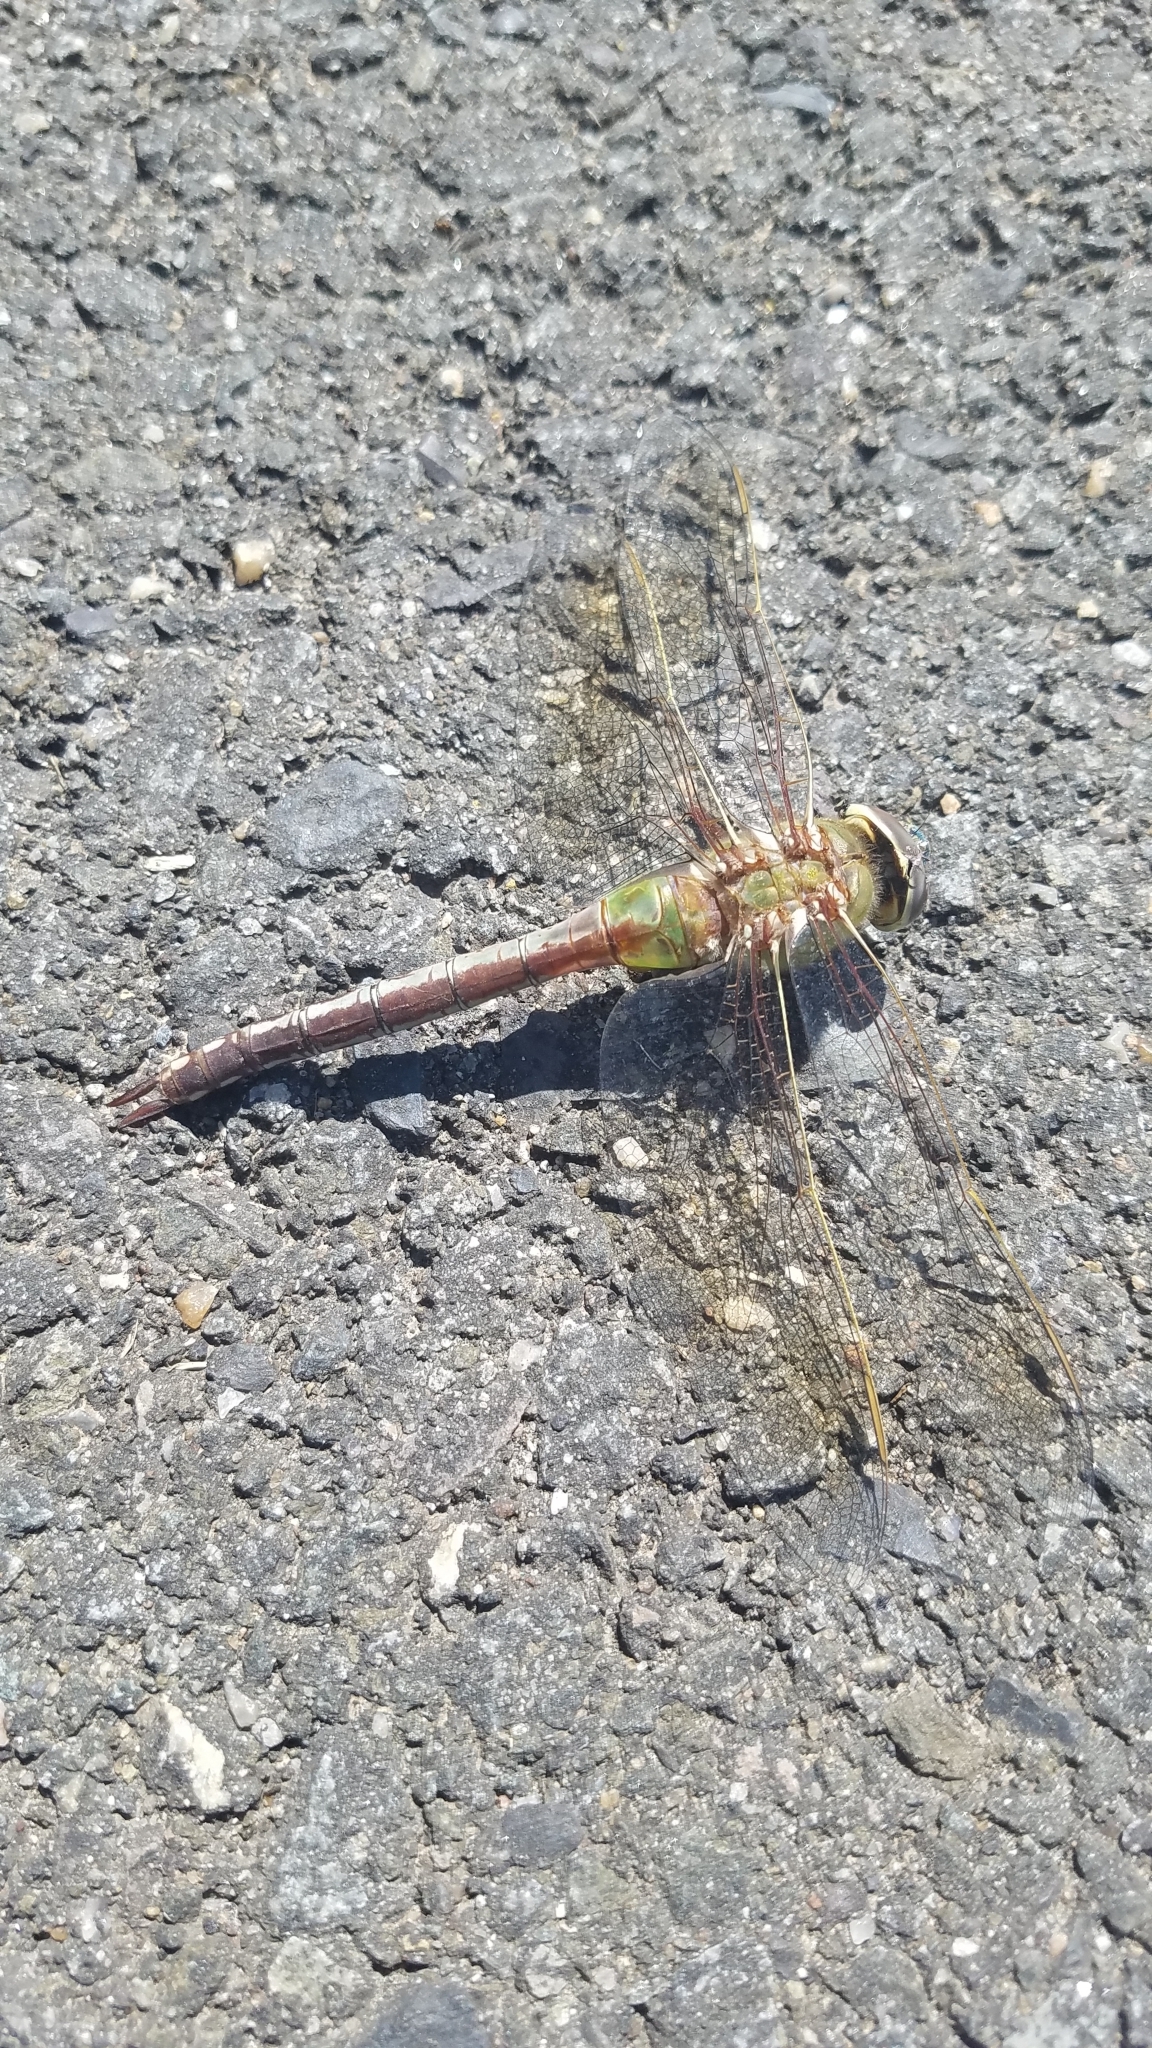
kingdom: Animalia
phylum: Arthropoda
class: Insecta
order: Odonata
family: Aeshnidae
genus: Anax
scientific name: Anax junius
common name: Common green darner
